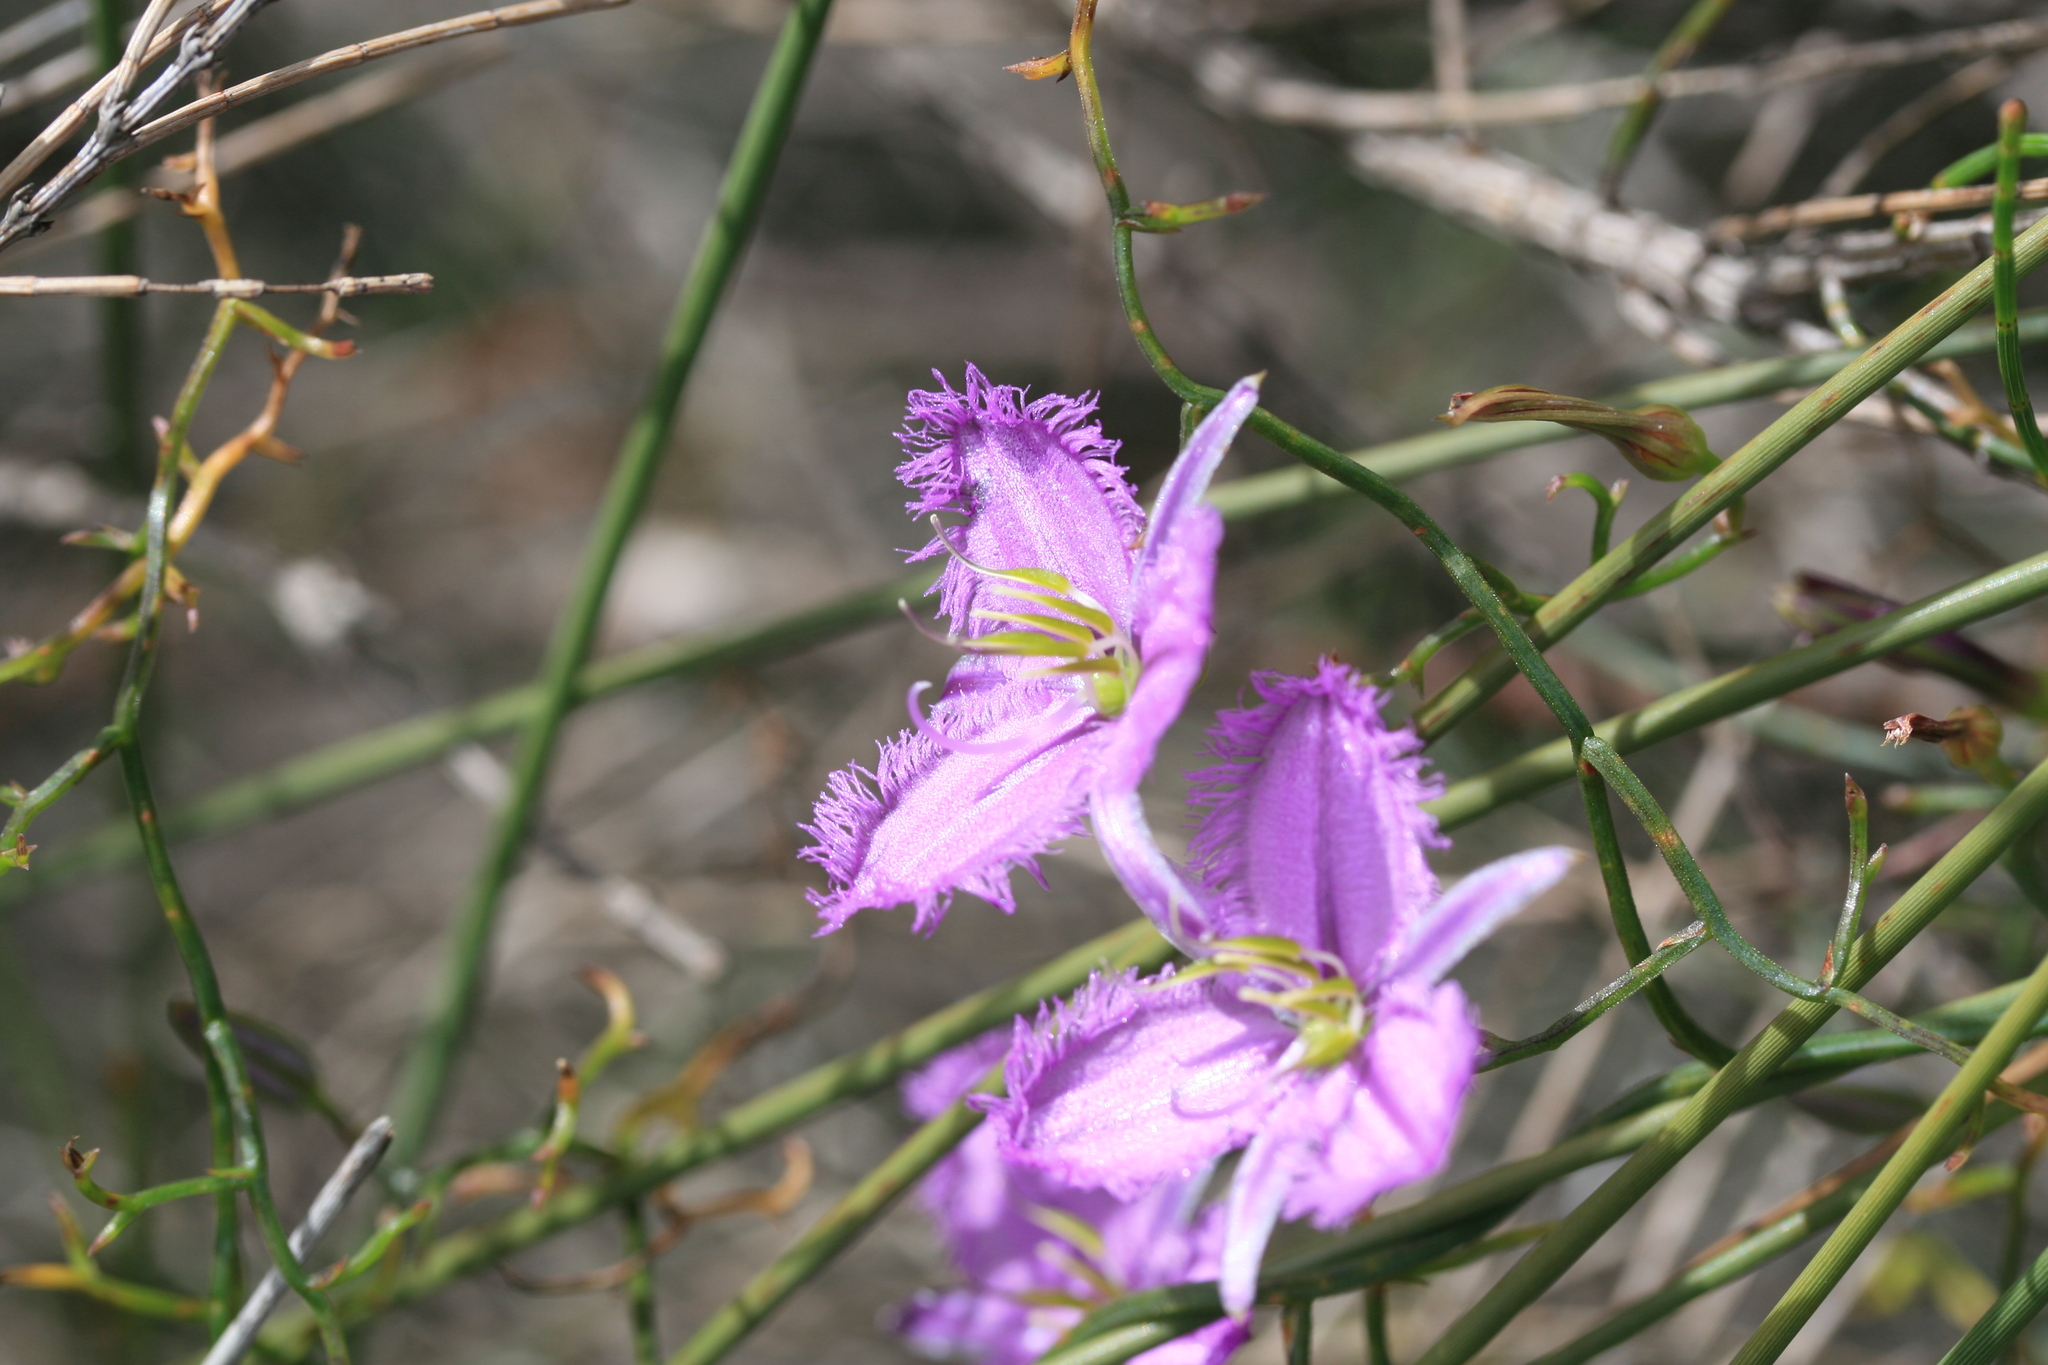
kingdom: Plantae
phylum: Tracheophyta
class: Liliopsida
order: Asparagales
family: Asparagaceae
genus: Thysanotus
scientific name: Thysanotus manglesianus
